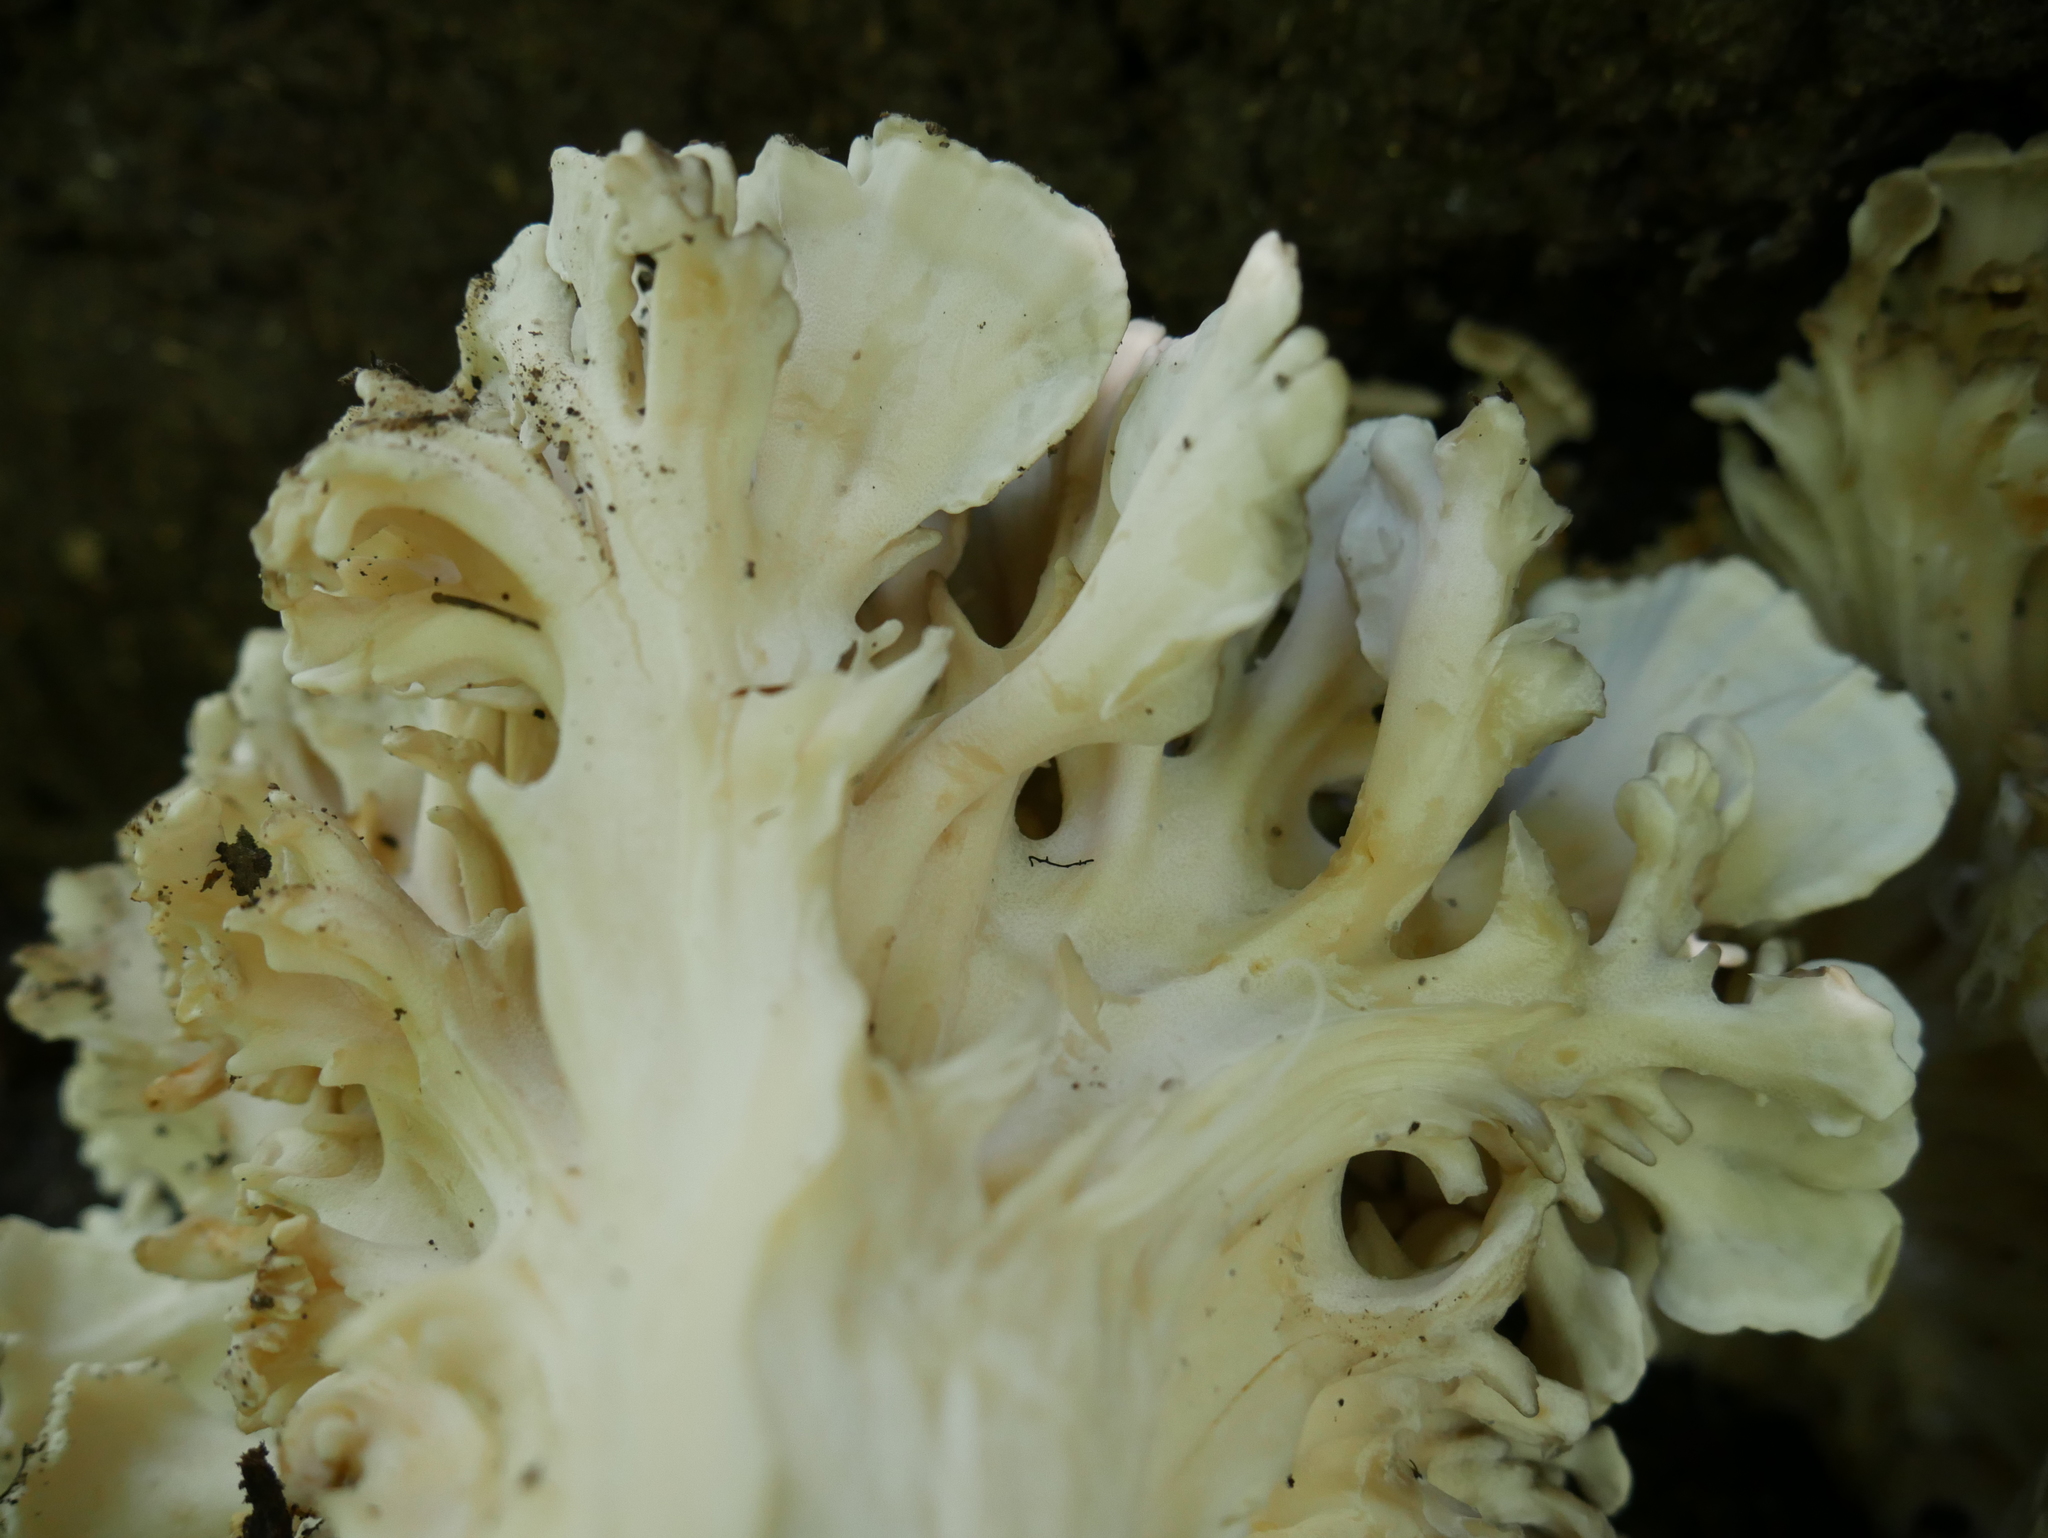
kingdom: Fungi
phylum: Basidiomycota
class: Agaricomycetes
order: Polyporales
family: Grifolaceae
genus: Grifola
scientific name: Grifola frondosa
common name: Hen of the woods
